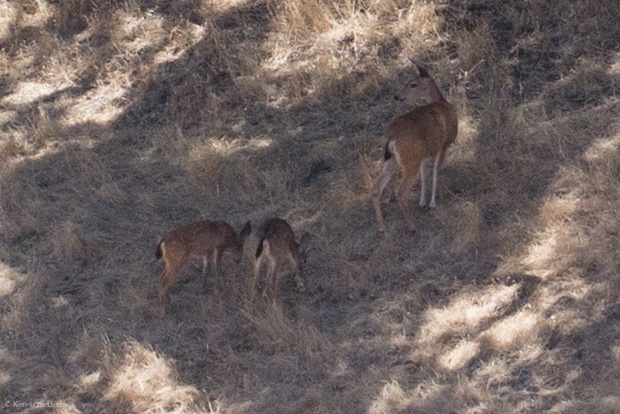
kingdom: Animalia
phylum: Chordata
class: Mammalia
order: Artiodactyla
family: Cervidae
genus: Odocoileus
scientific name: Odocoileus hemionus
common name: Mule deer
